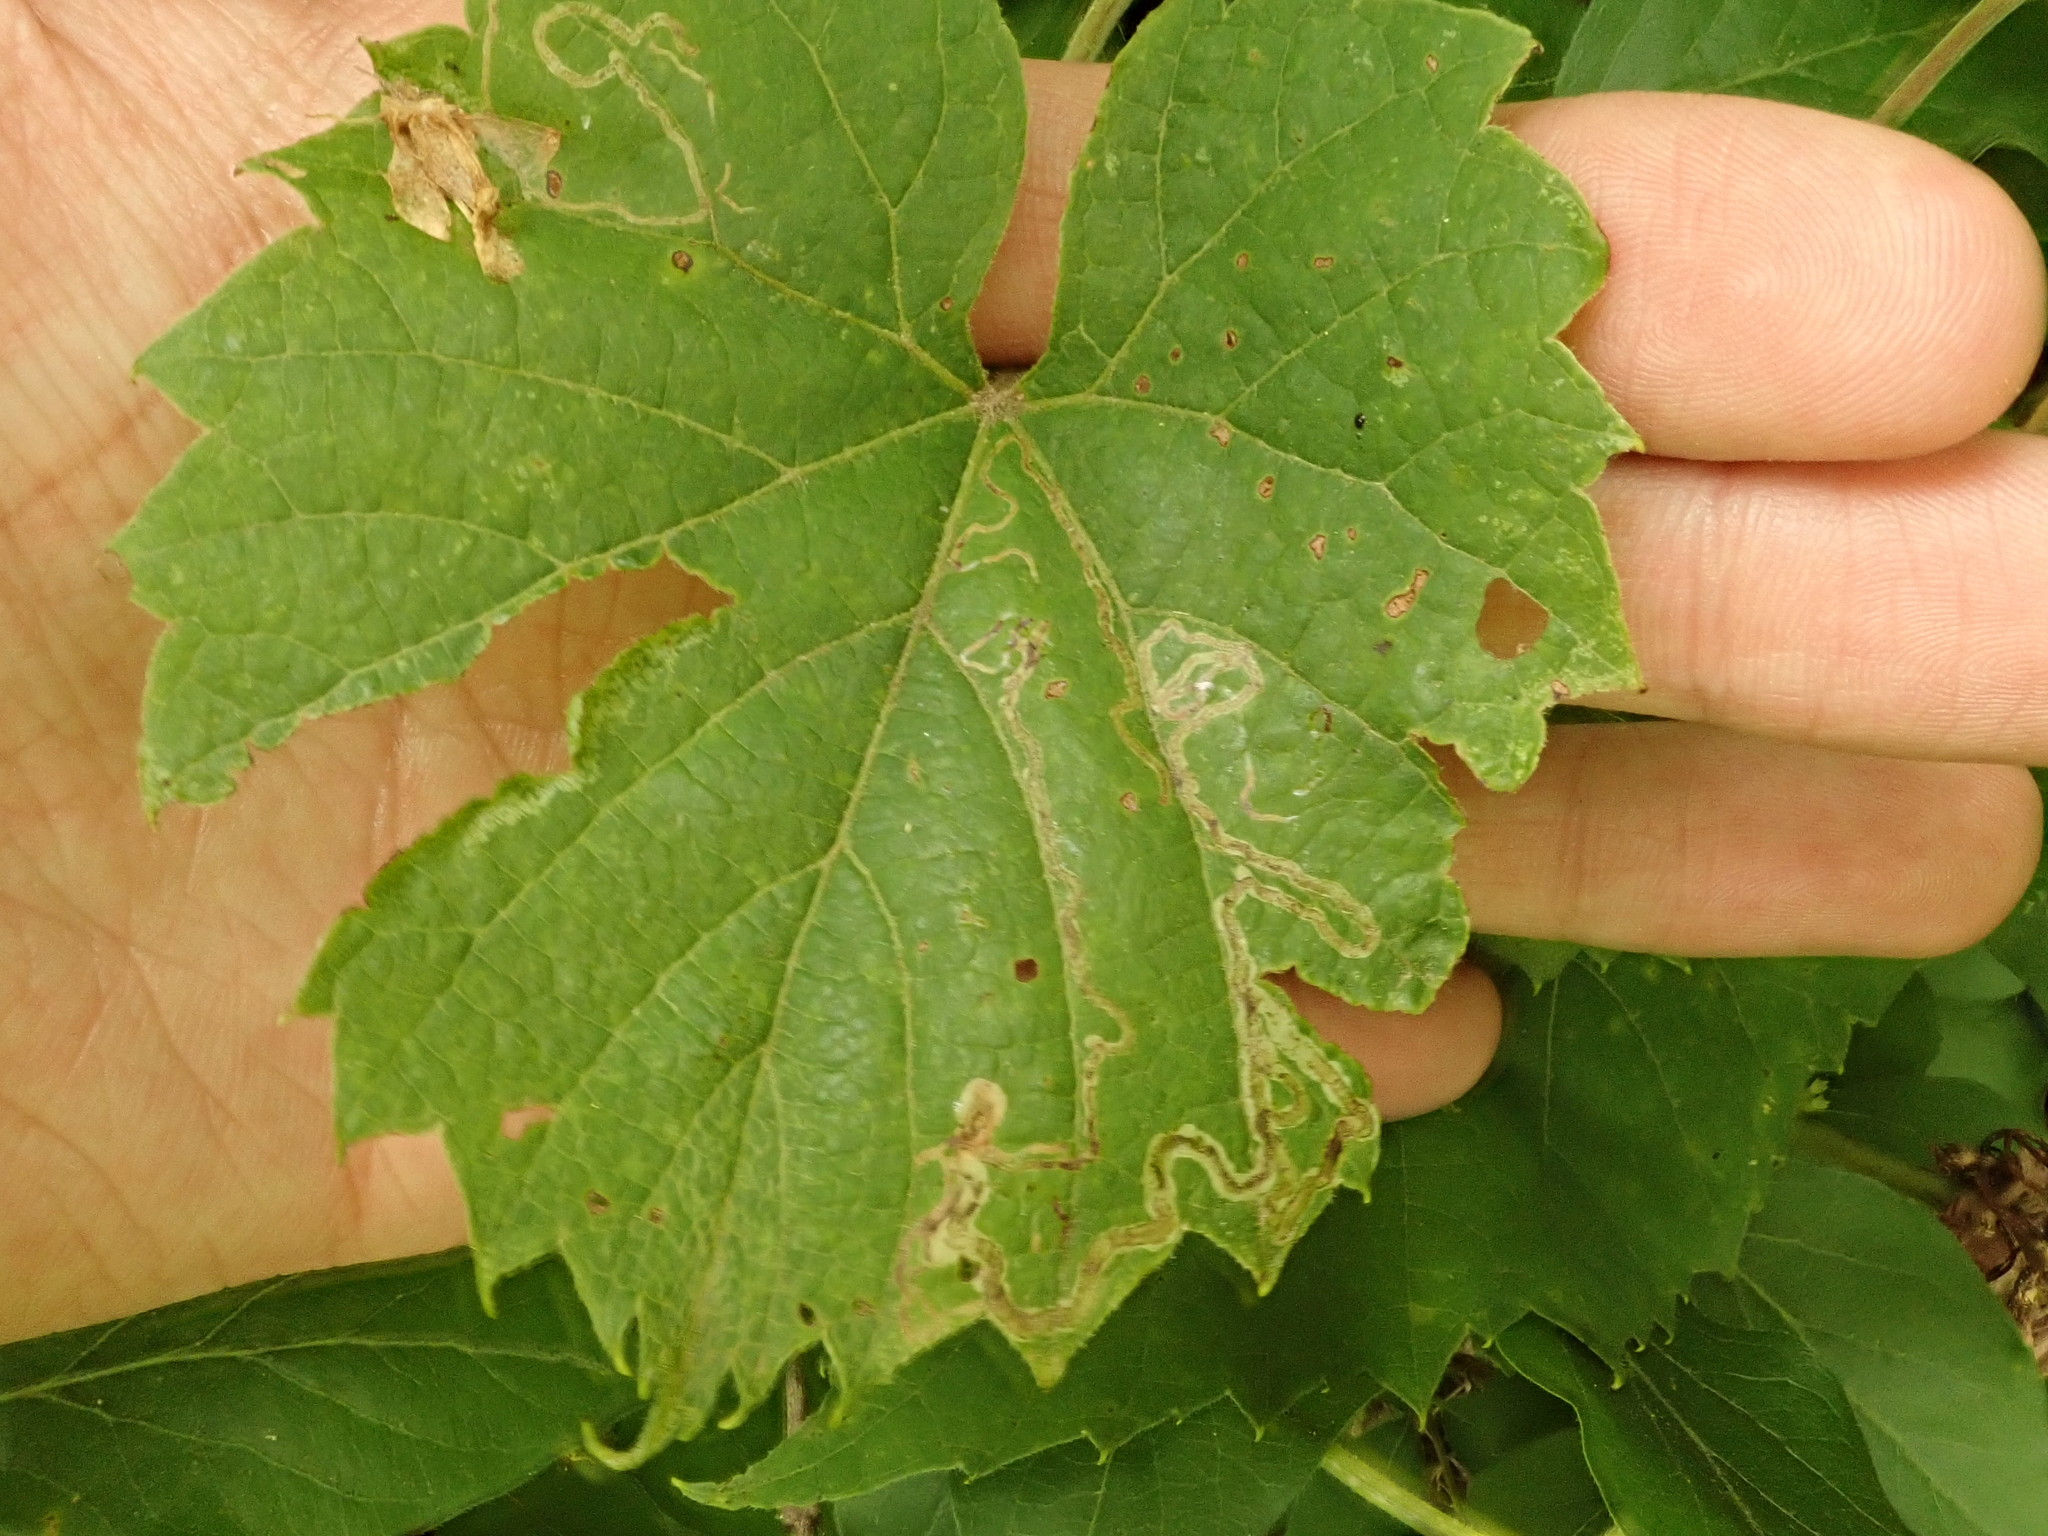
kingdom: Animalia
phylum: Arthropoda
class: Insecta
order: Lepidoptera
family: Gracillariidae
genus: Phyllocnistis
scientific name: Phyllocnistis vitifoliella
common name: Grape leaf-miner moth
